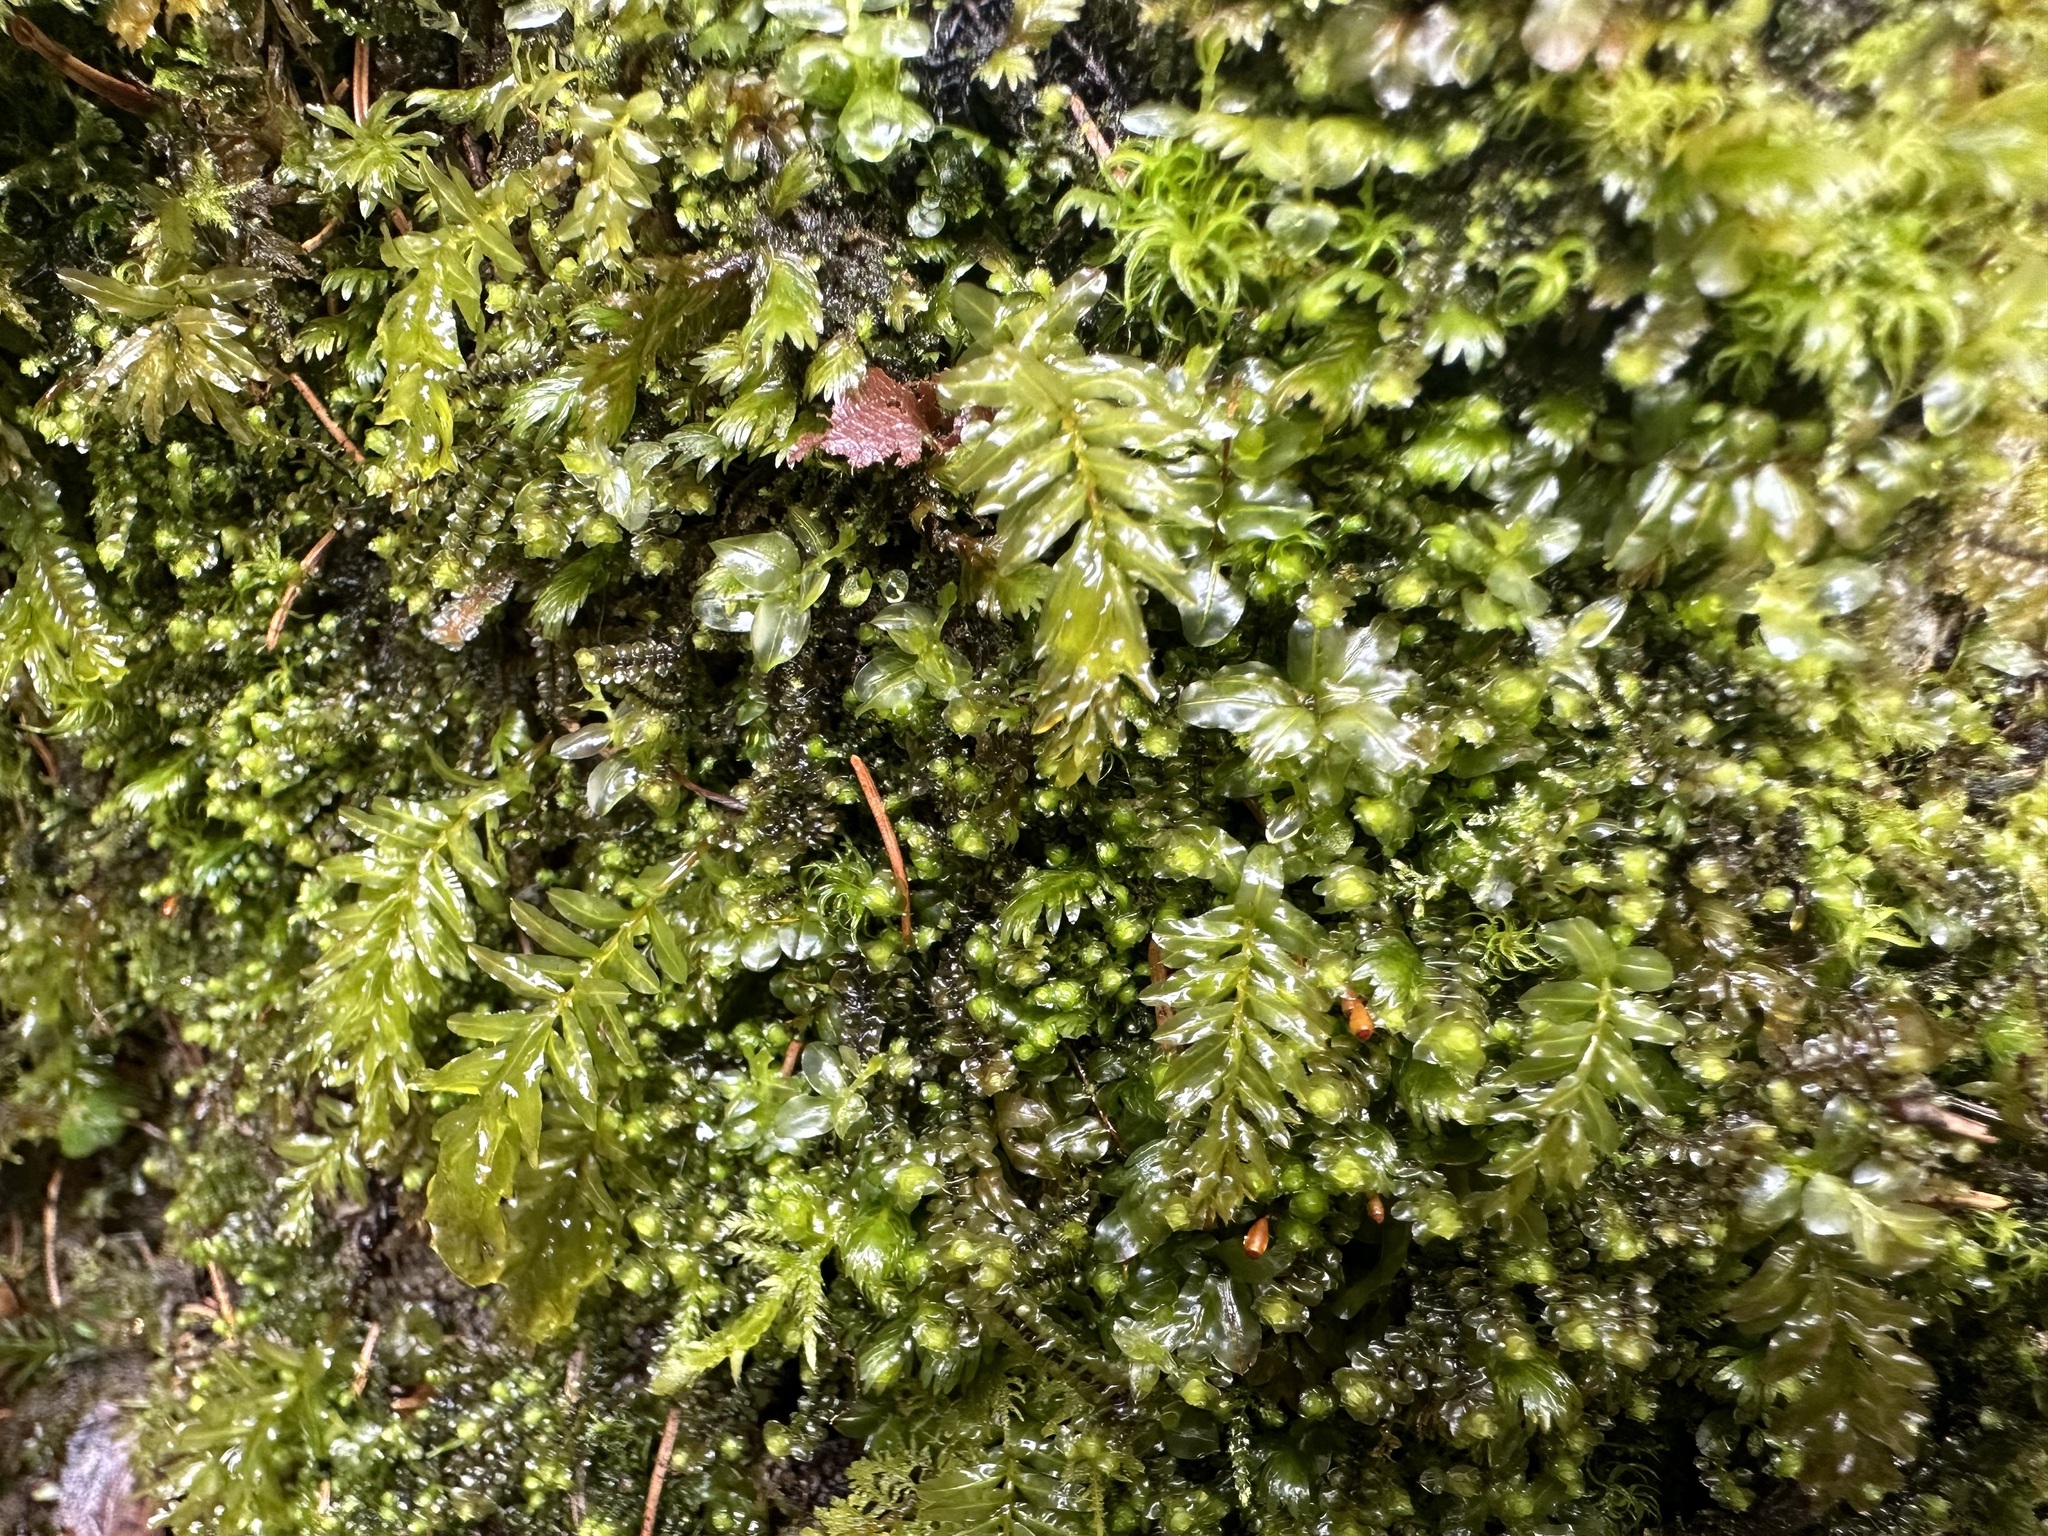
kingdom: Plantae
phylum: Bryophyta
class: Bryopsida
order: Bryales
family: Mniaceae
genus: Plagiomnium
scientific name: Plagiomnium undulatum
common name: Hart's-tongue thyme-moss
